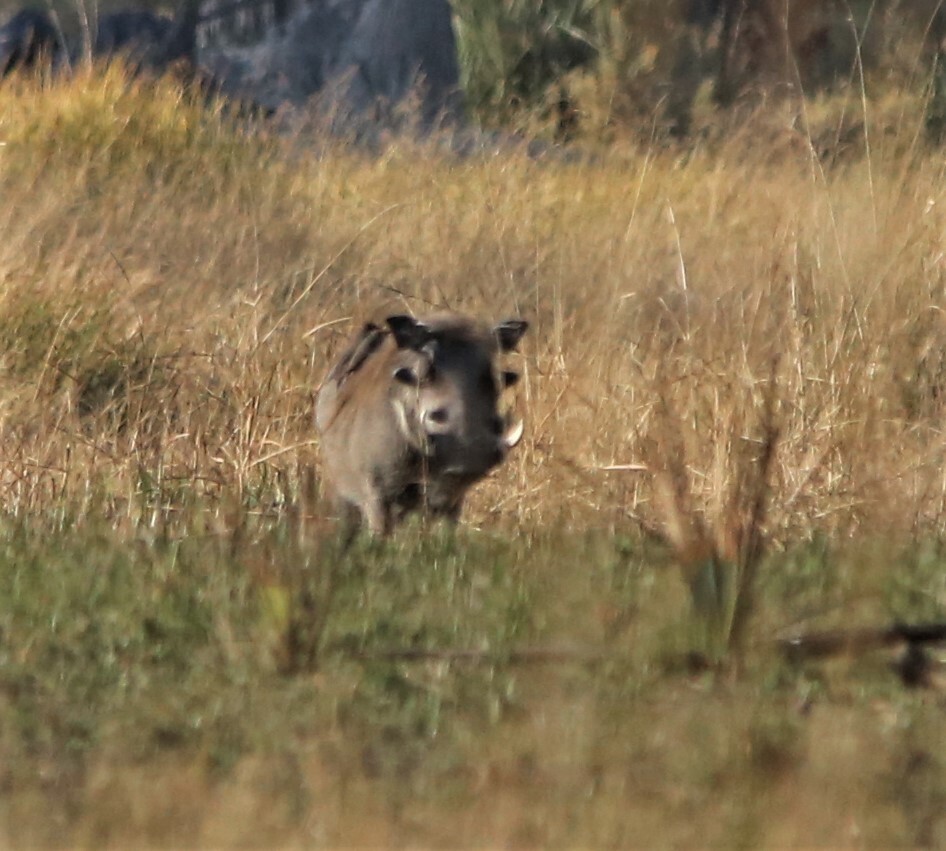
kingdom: Animalia
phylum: Chordata
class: Mammalia
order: Artiodactyla
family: Suidae
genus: Phacochoerus
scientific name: Phacochoerus africanus
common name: Common warthog
